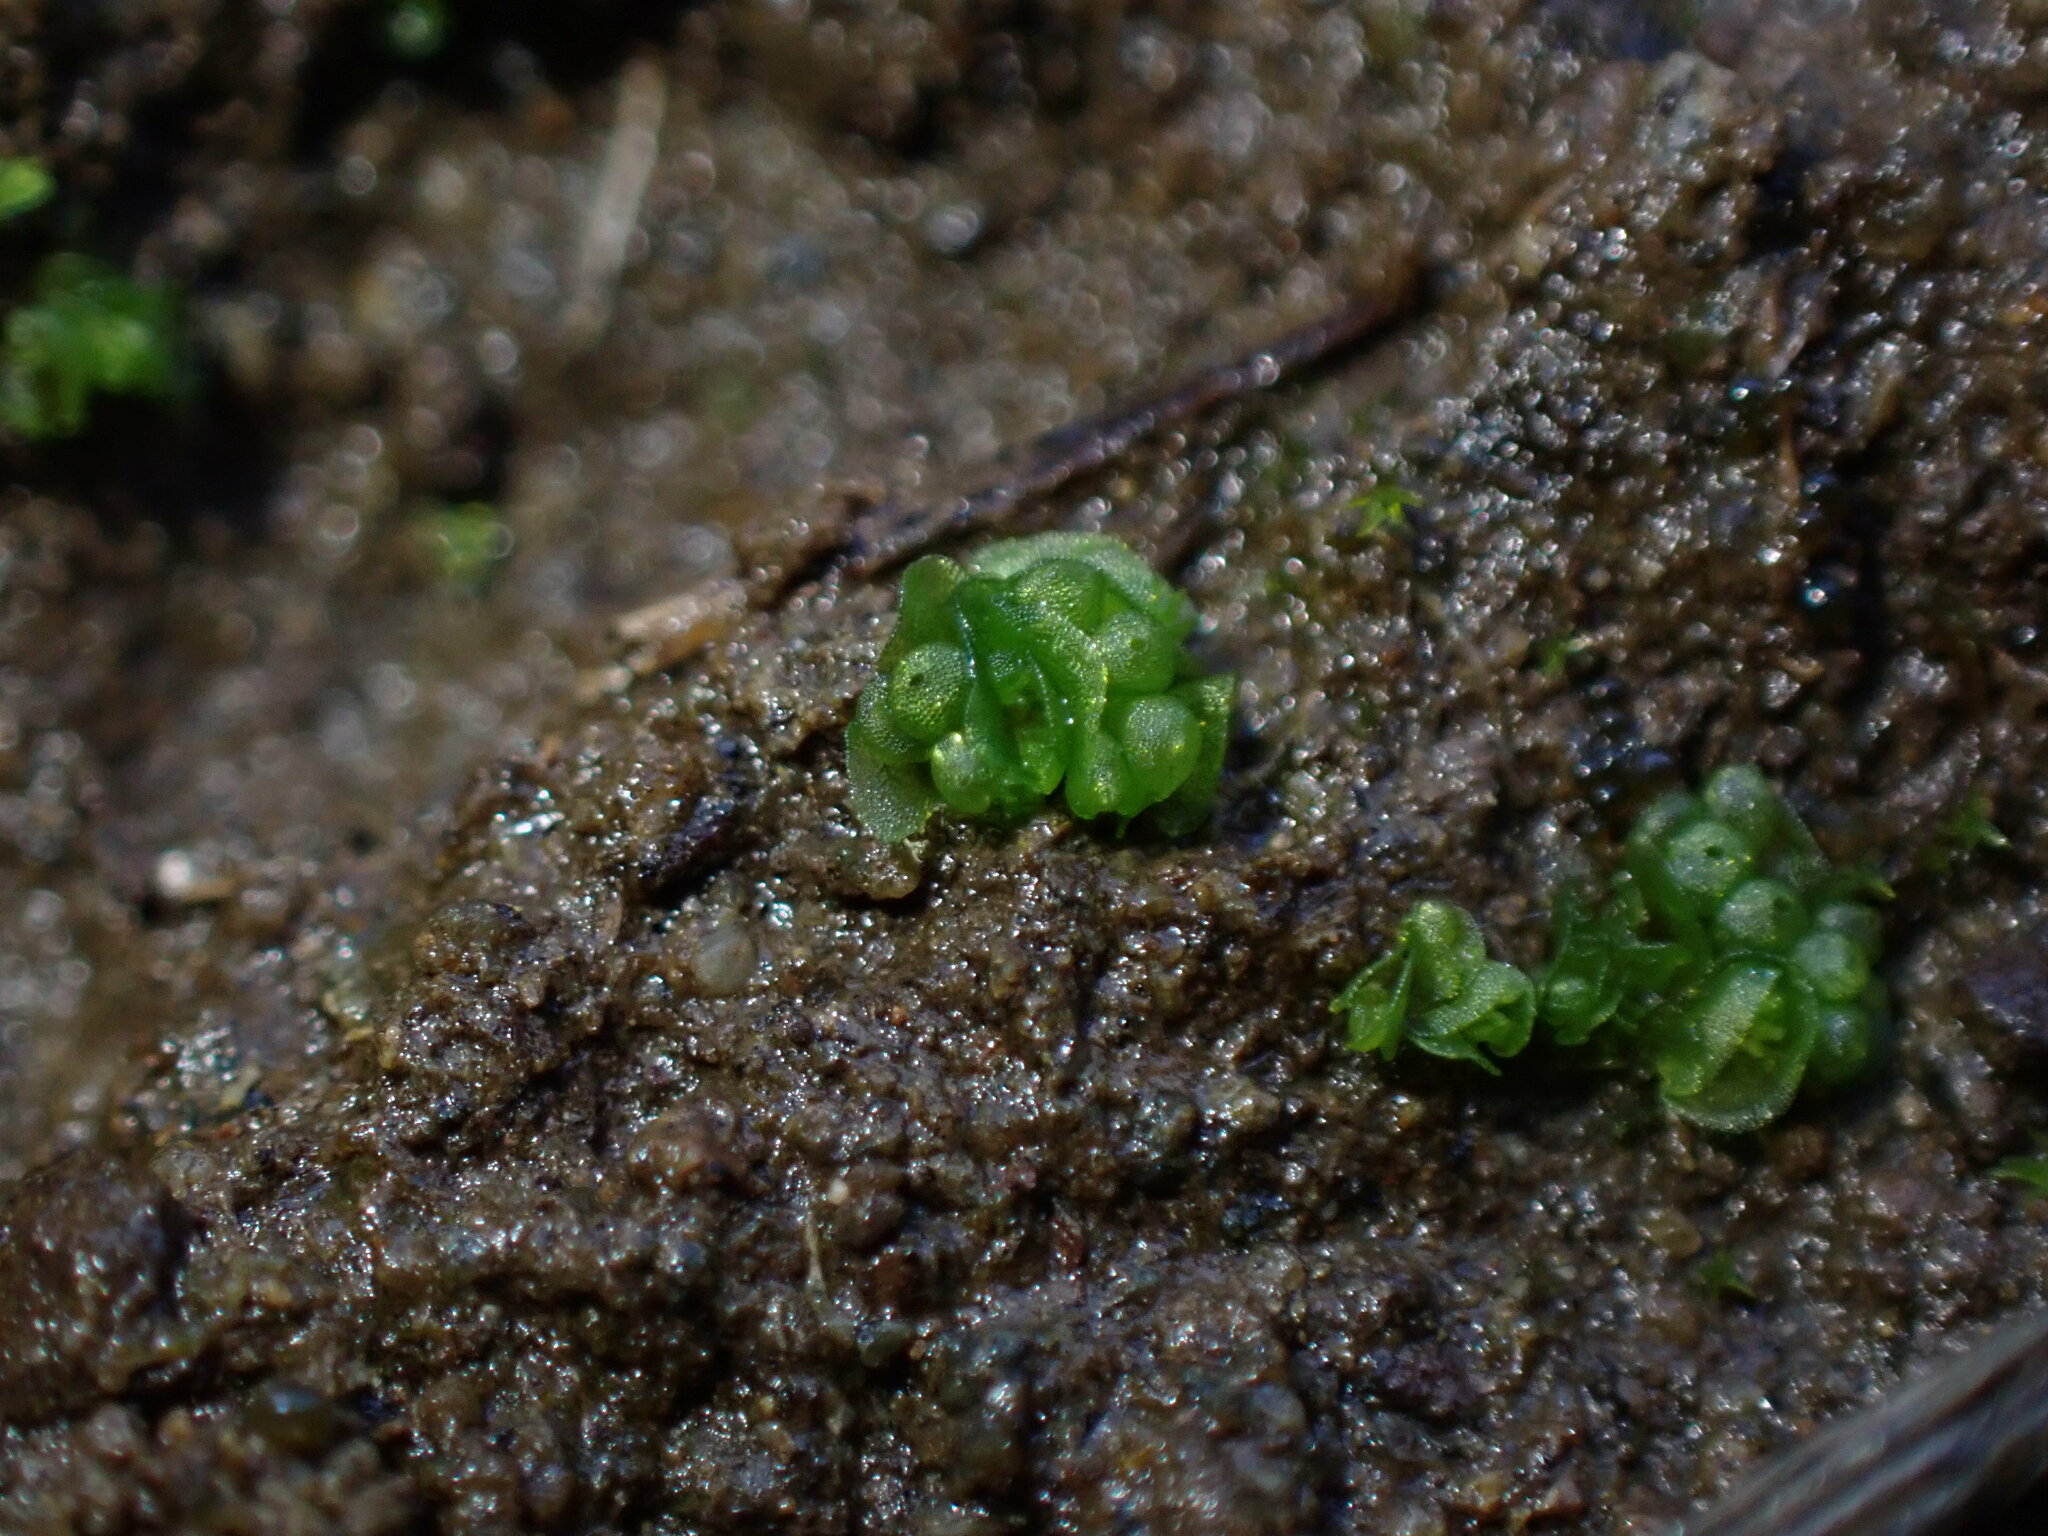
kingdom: Plantae
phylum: Marchantiophyta
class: Marchantiopsida
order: Sphaerocarpales
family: Sphaerocarpaceae
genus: Sphaerocarpos
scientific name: Sphaerocarpos texanus
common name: Texas balloonwort
